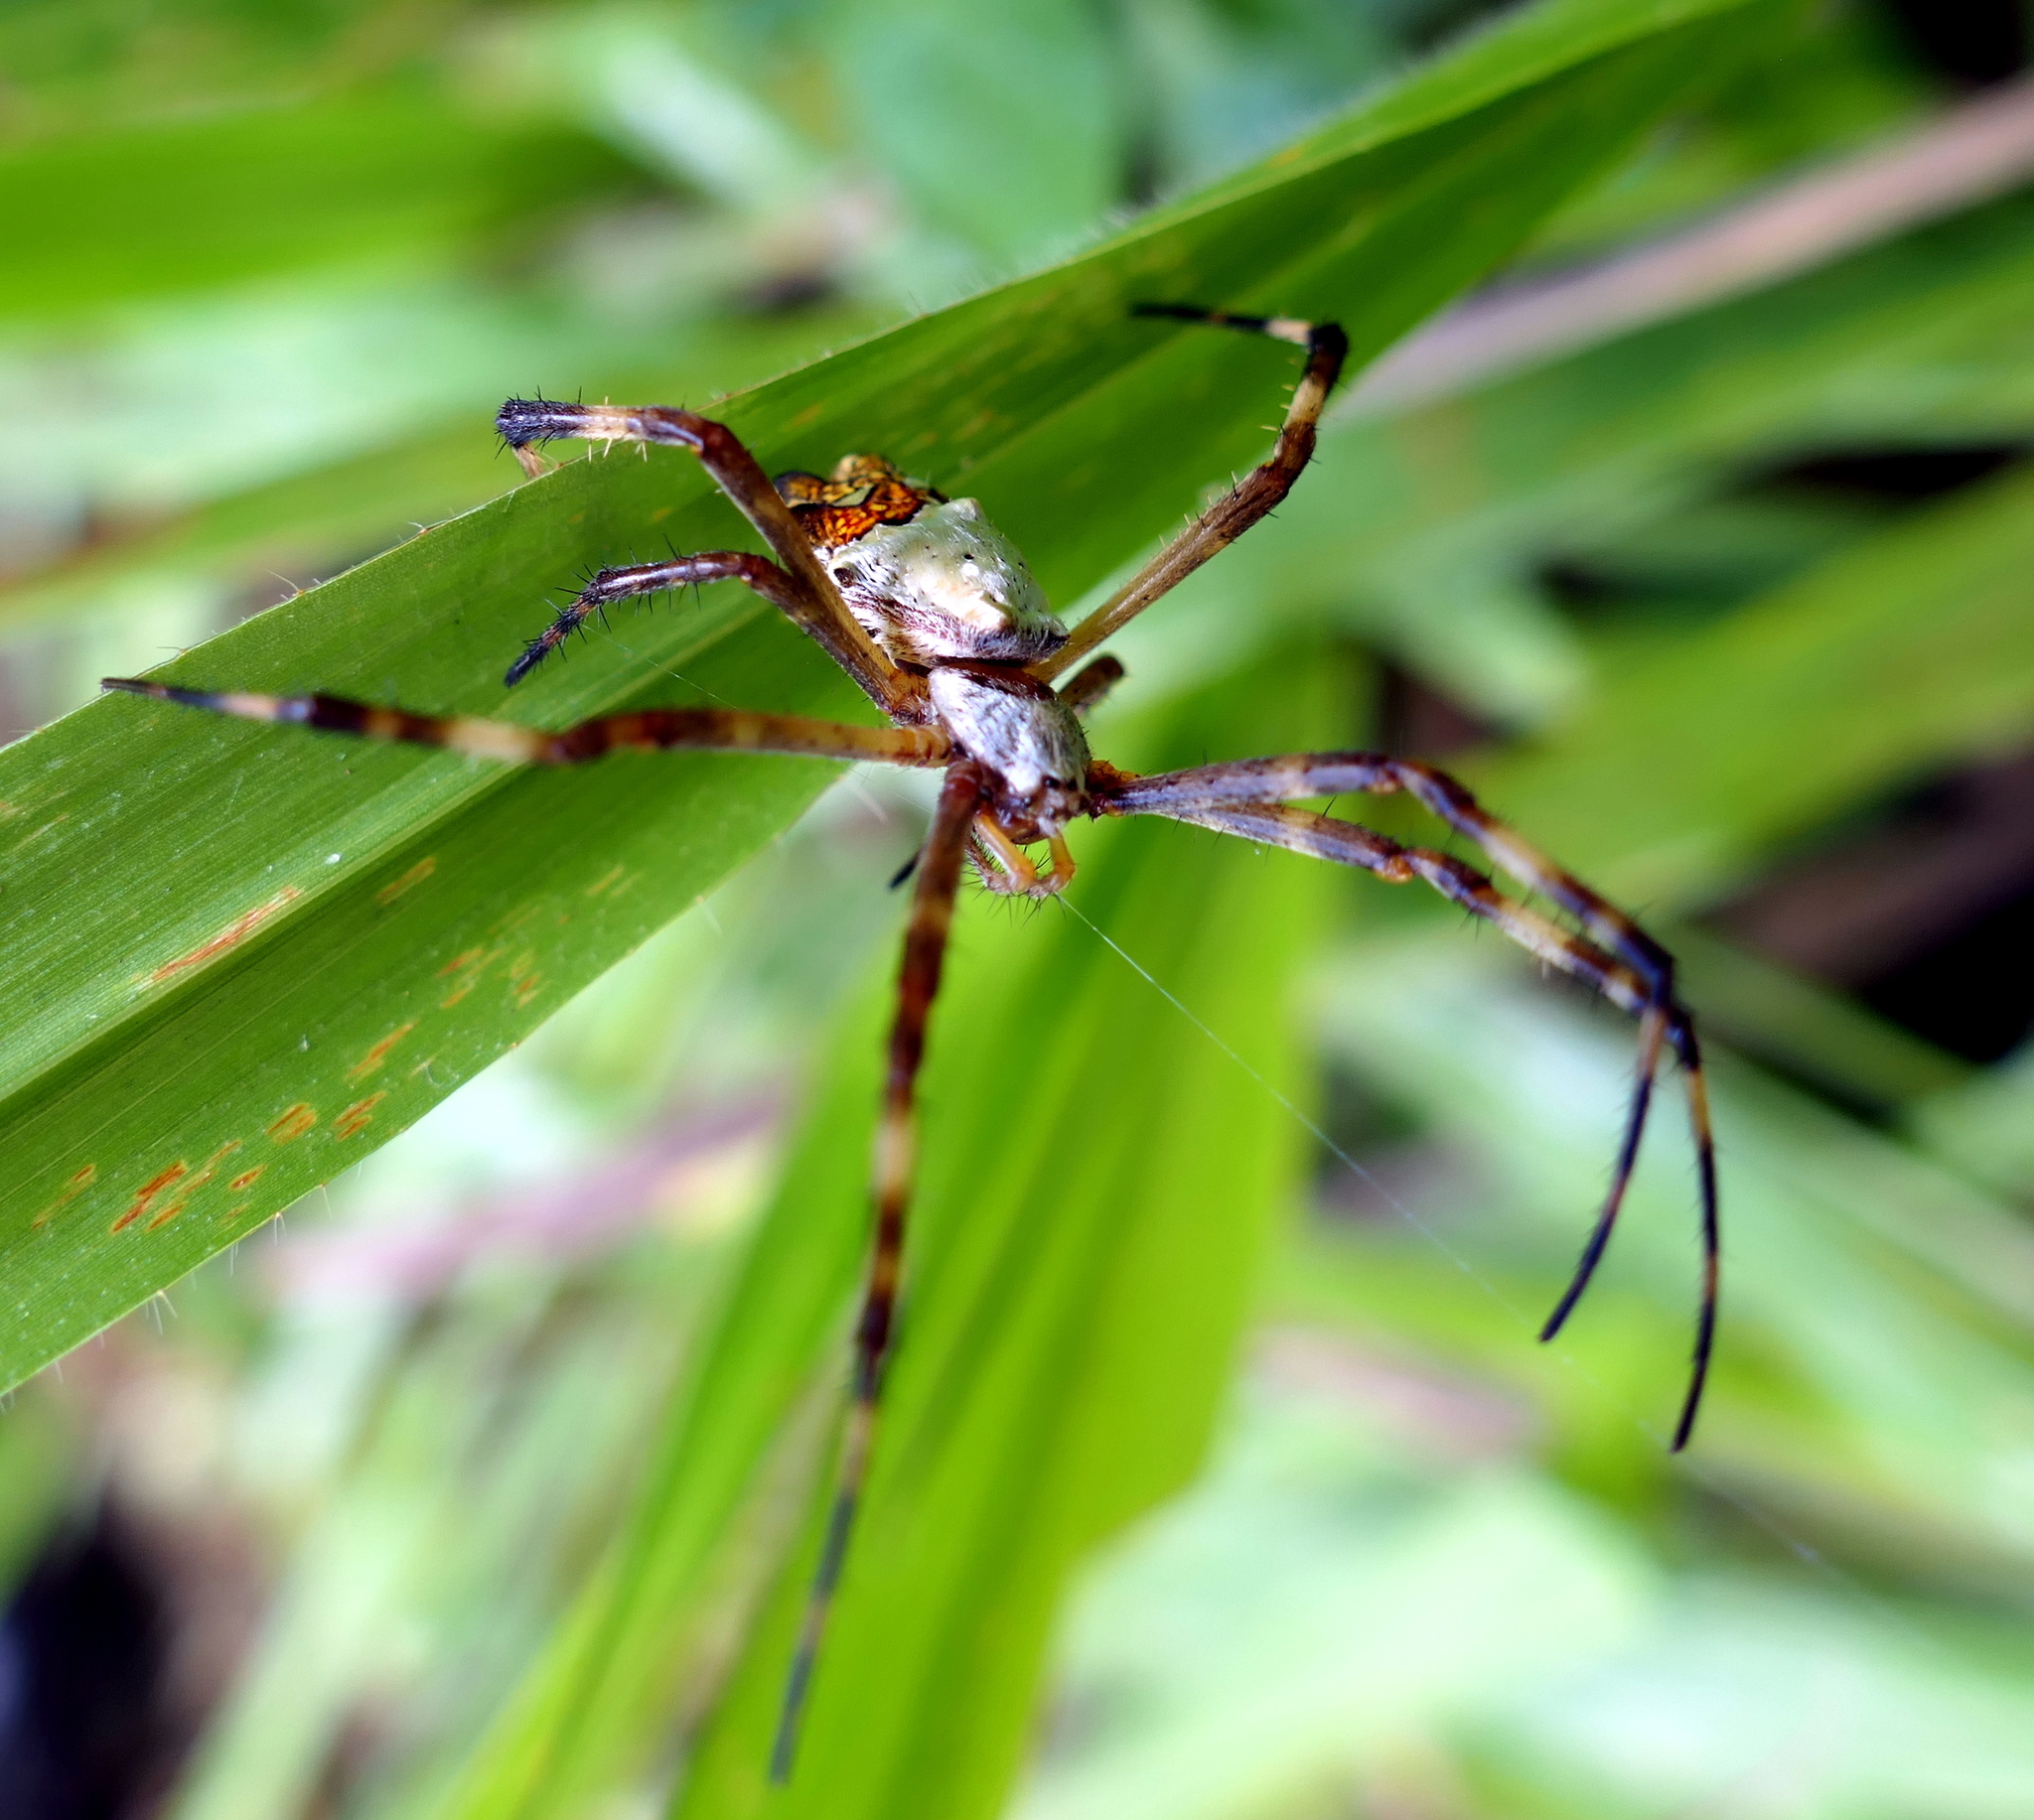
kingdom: Animalia
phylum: Arthropoda
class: Arachnida
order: Araneae
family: Araneidae
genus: Argiope
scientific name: Argiope argentata
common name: Orb weavers
